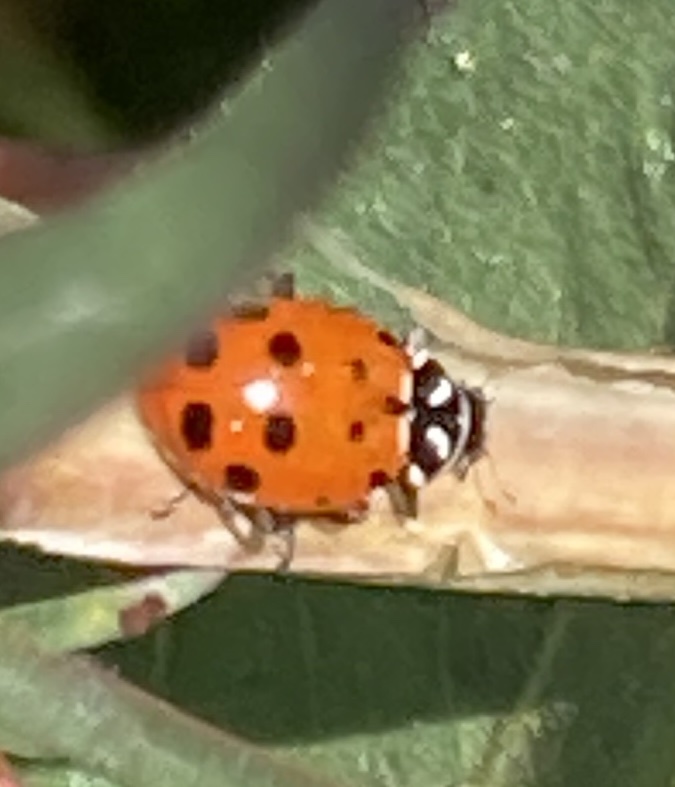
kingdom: Animalia
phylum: Arthropoda
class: Insecta
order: Coleoptera
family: Coccinellidae
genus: Hippodamia
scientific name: Hippodamia convergens
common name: Convergent lady beetle
